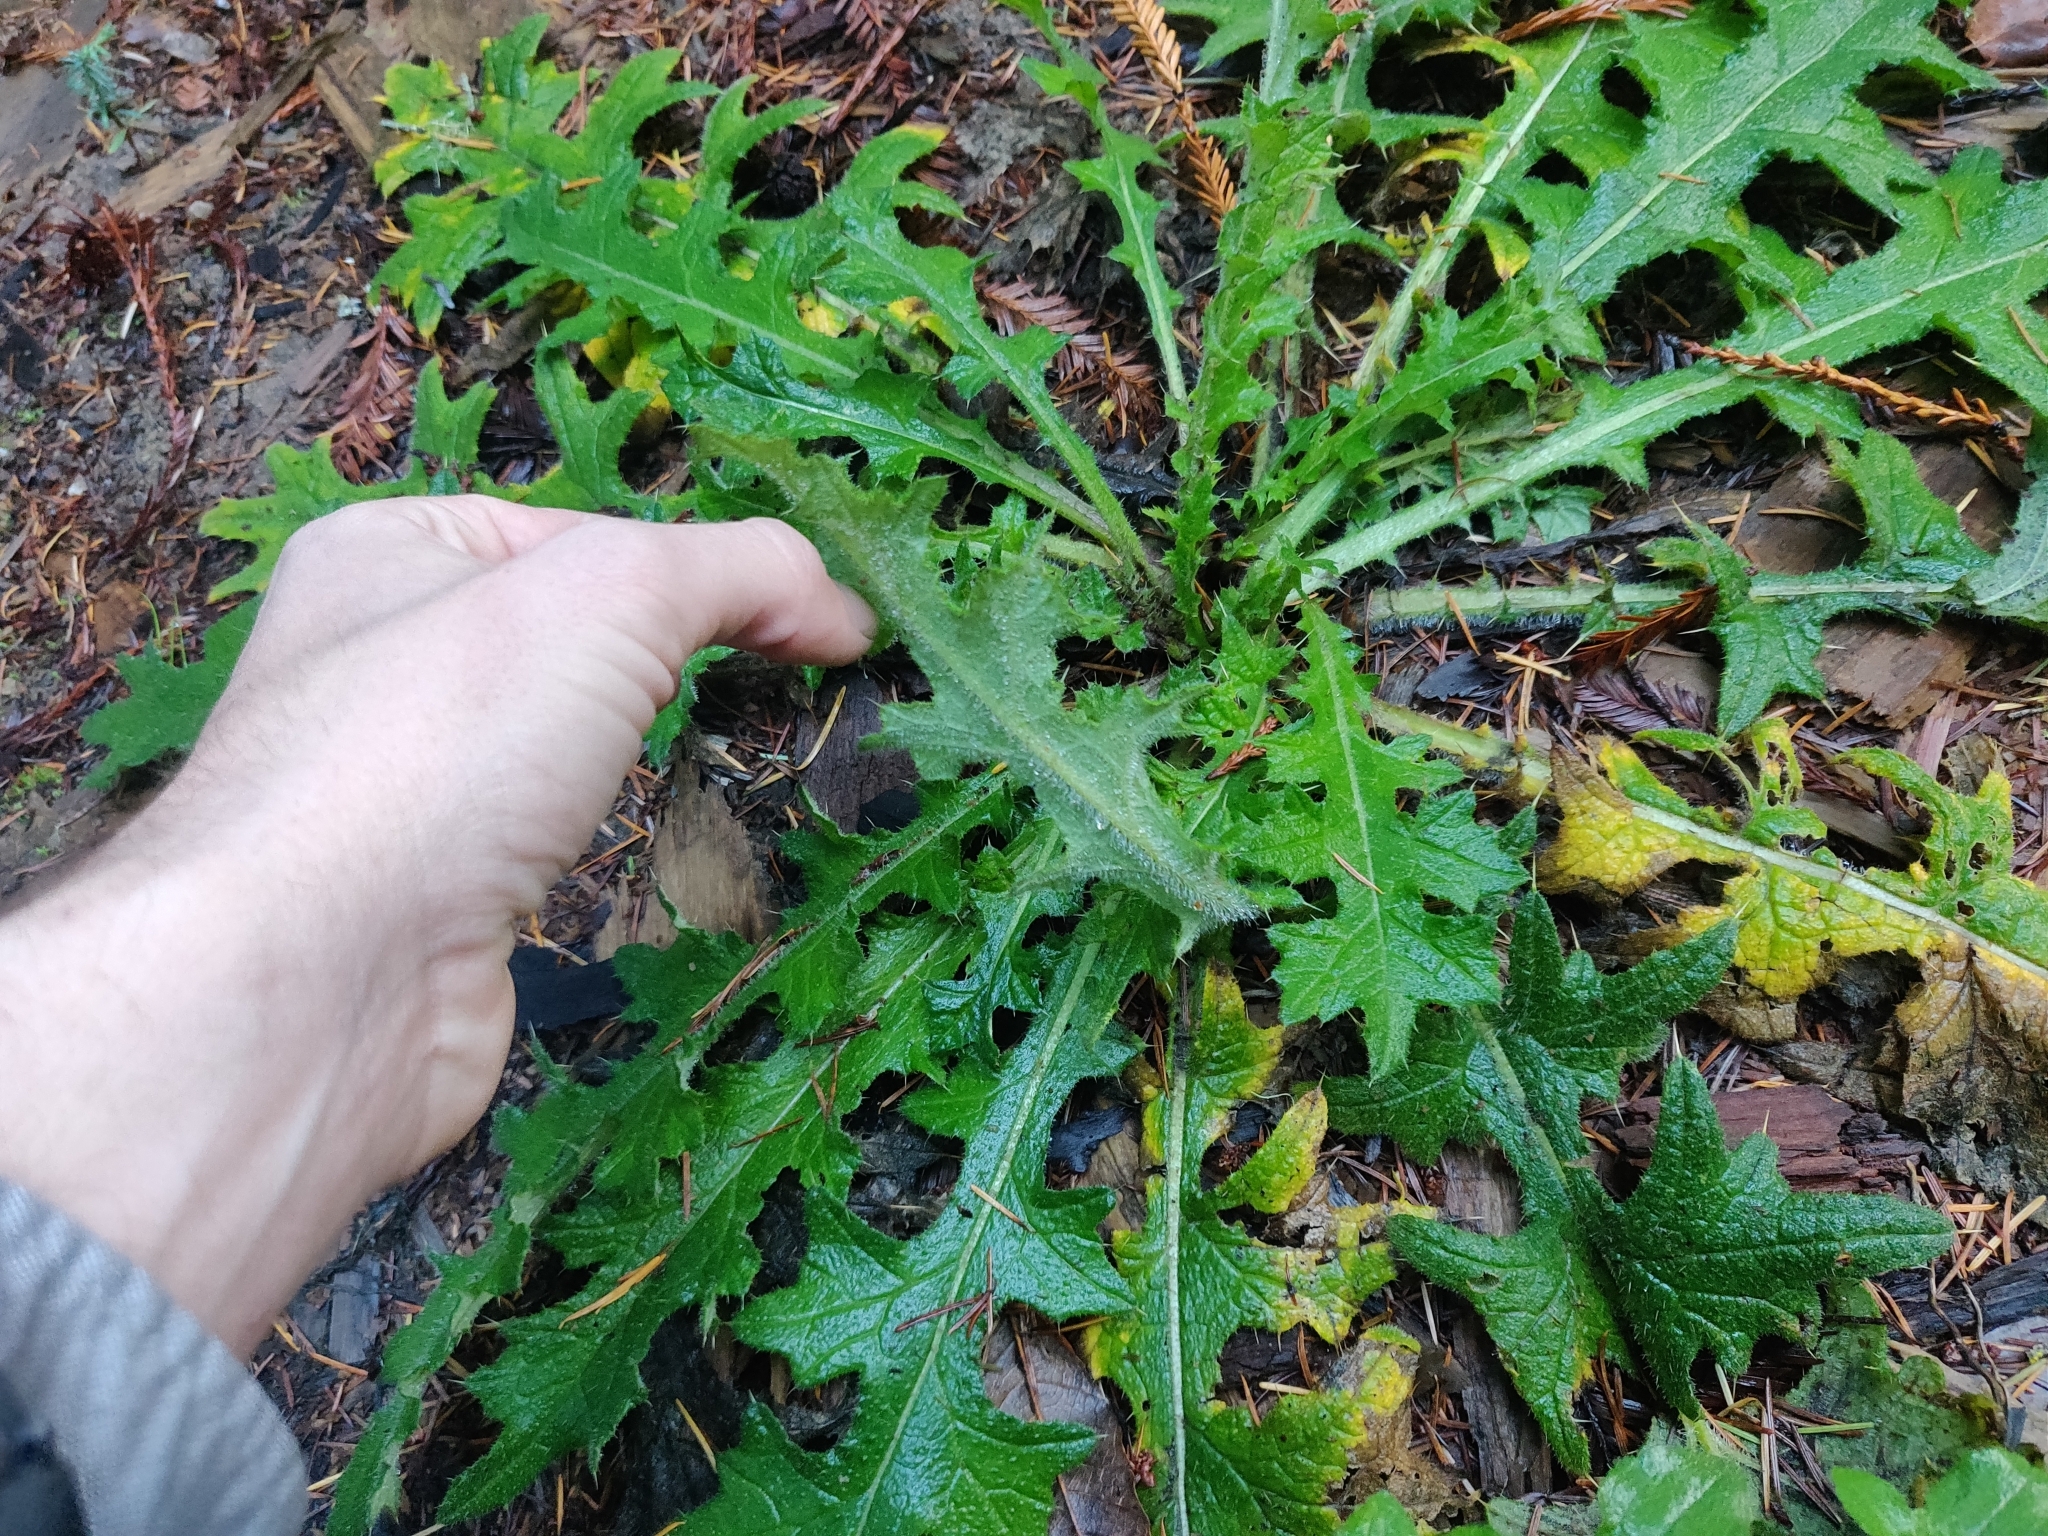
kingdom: Plantae
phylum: Tracheophyta
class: Magnoliopsida
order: Asterales
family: Asteraceae
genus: Cirsium
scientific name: Cirsium vulgare
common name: Bull thistle
